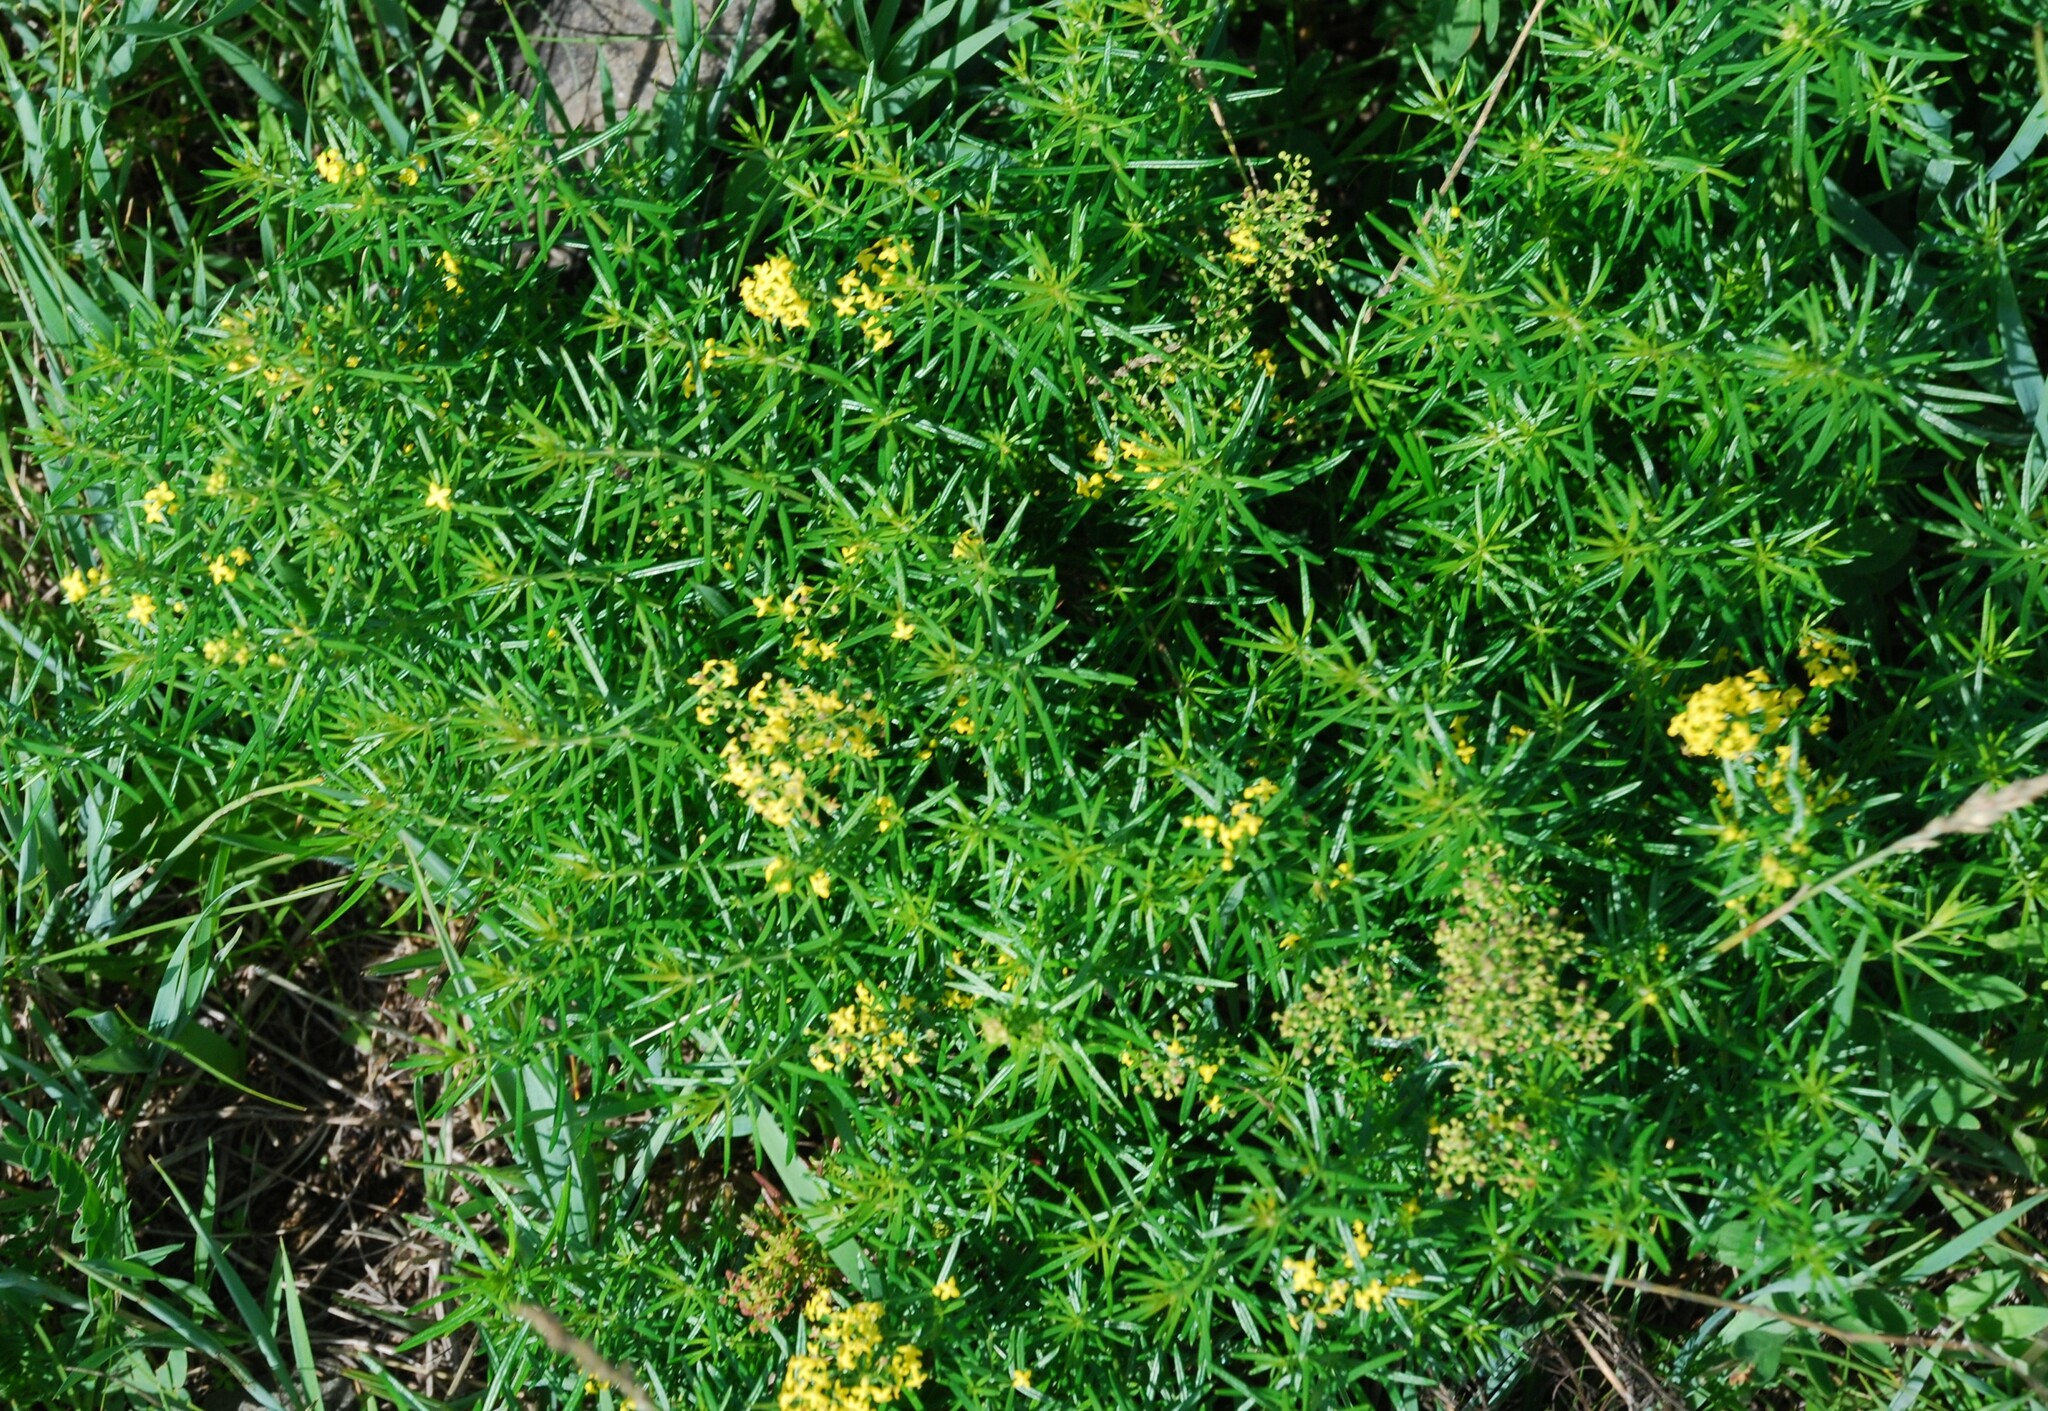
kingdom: Plantae
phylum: Tracheophyta
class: Magnoliopsida
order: Gentianales
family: Rubiaceae
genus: Galium
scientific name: Galium verum
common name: Lady's bedstraw
